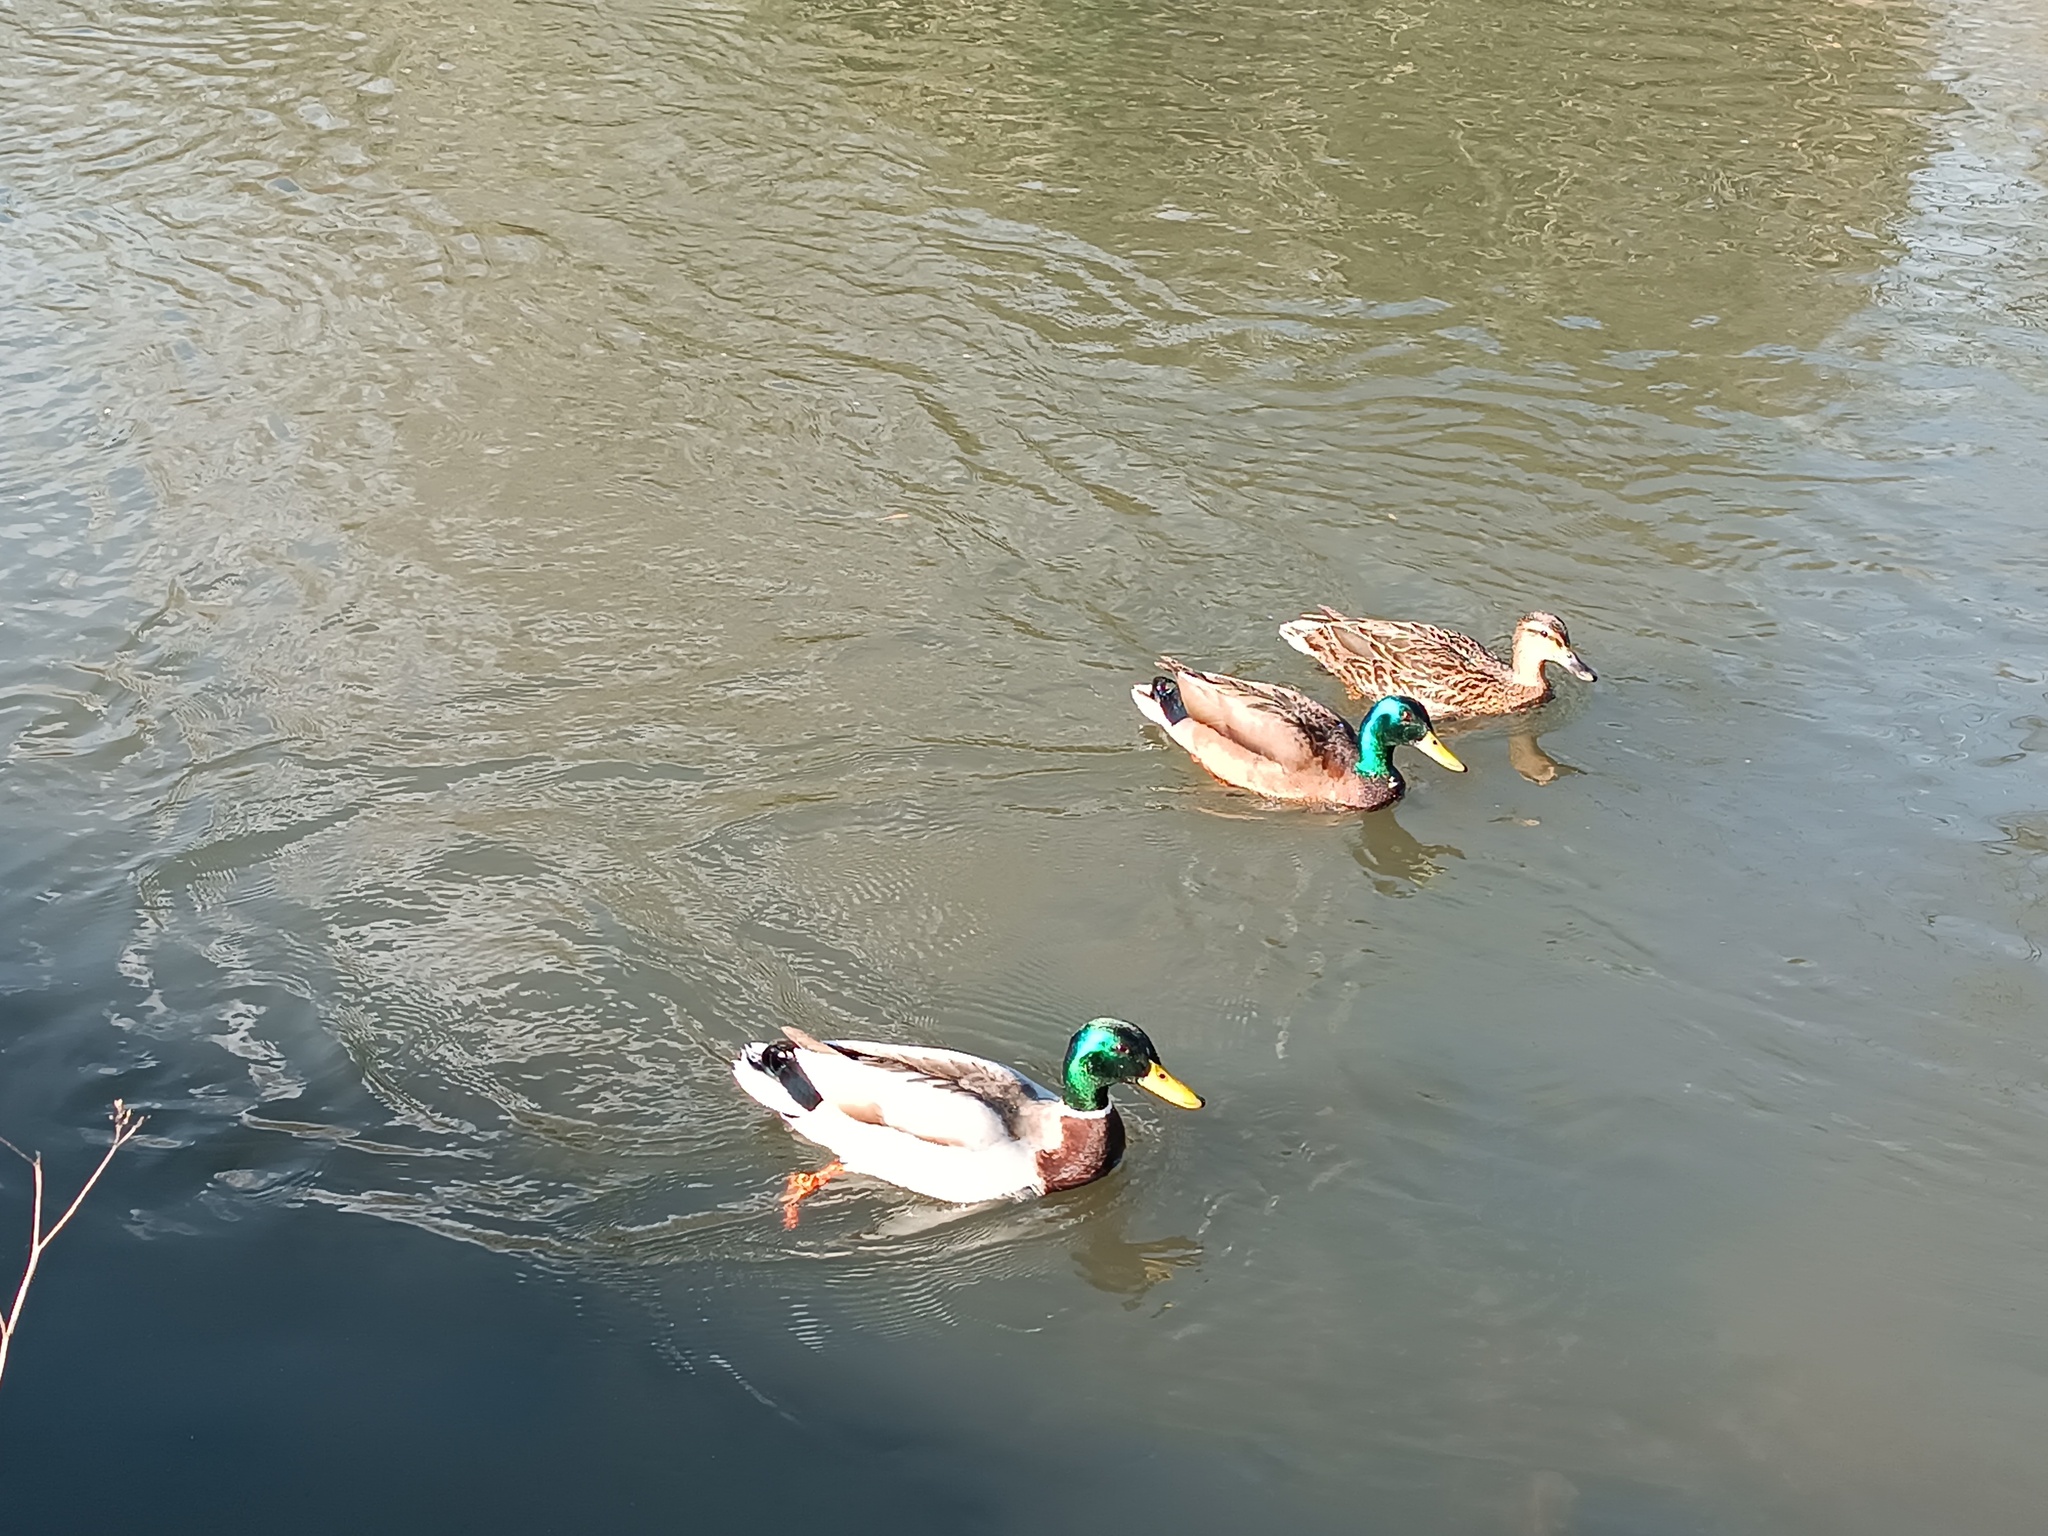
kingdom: Animalia
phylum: Chordata
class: Aves
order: Anseriformes
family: Anatidae
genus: Anas
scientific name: Anas platyrhynchos
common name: Mallard
